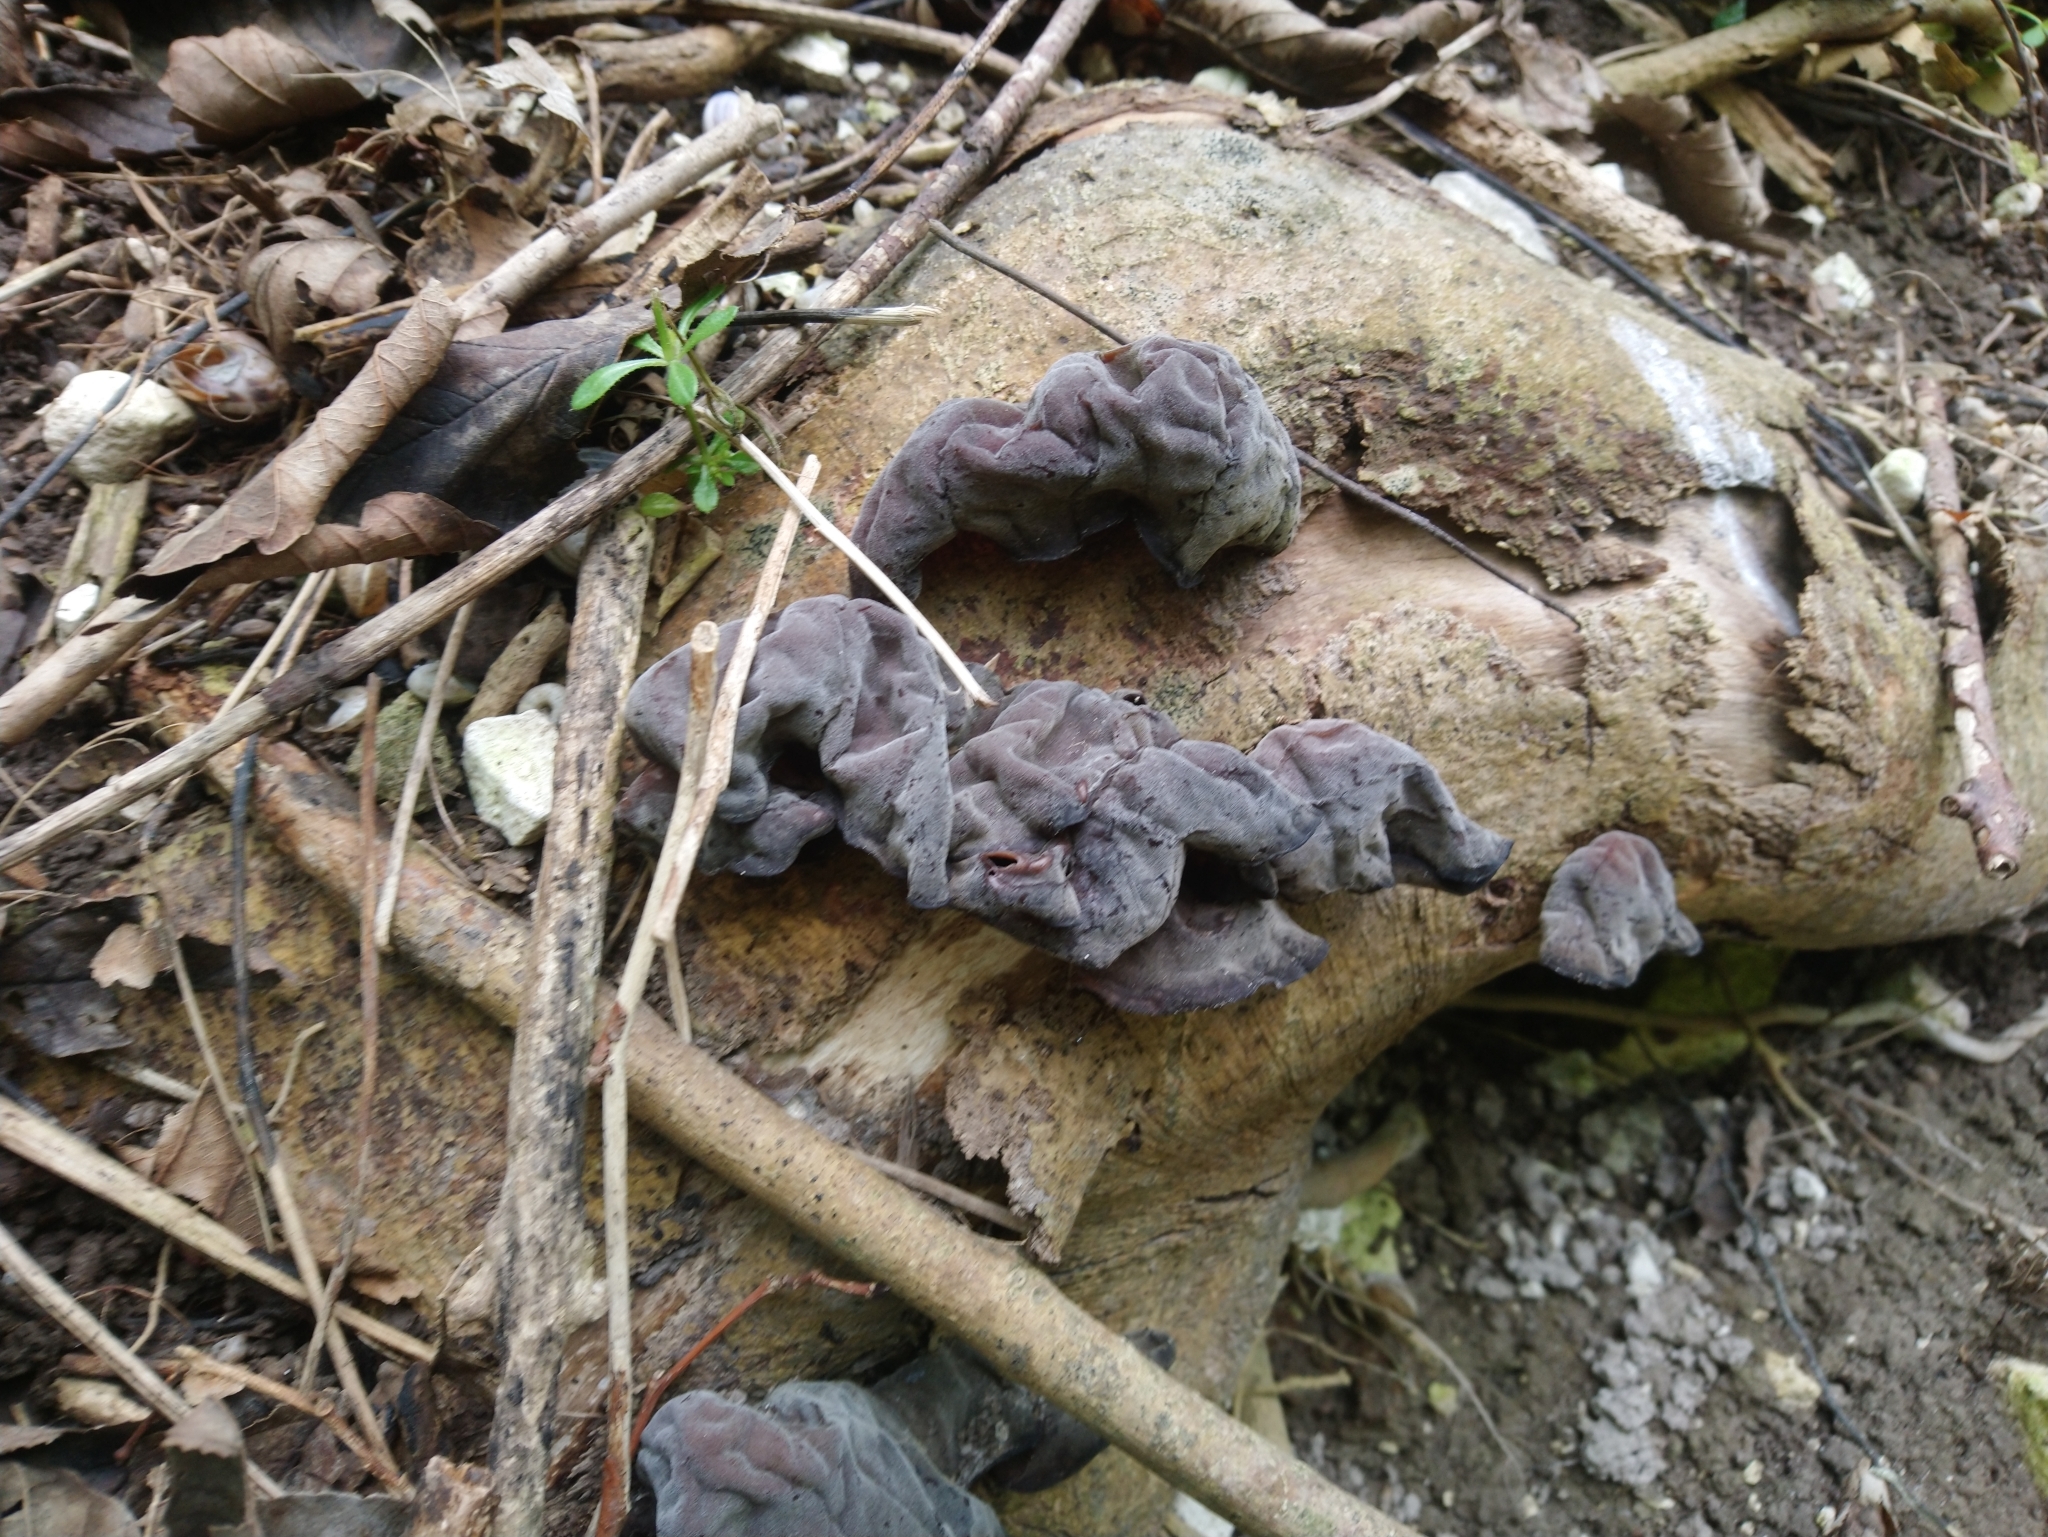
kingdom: Fungi
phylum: Basidiomycota
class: Agaricomycetes
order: Auriculariales
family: Auriculariaceae
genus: Auricularia
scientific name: Auricularia auricula-judae
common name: Jelly ear
